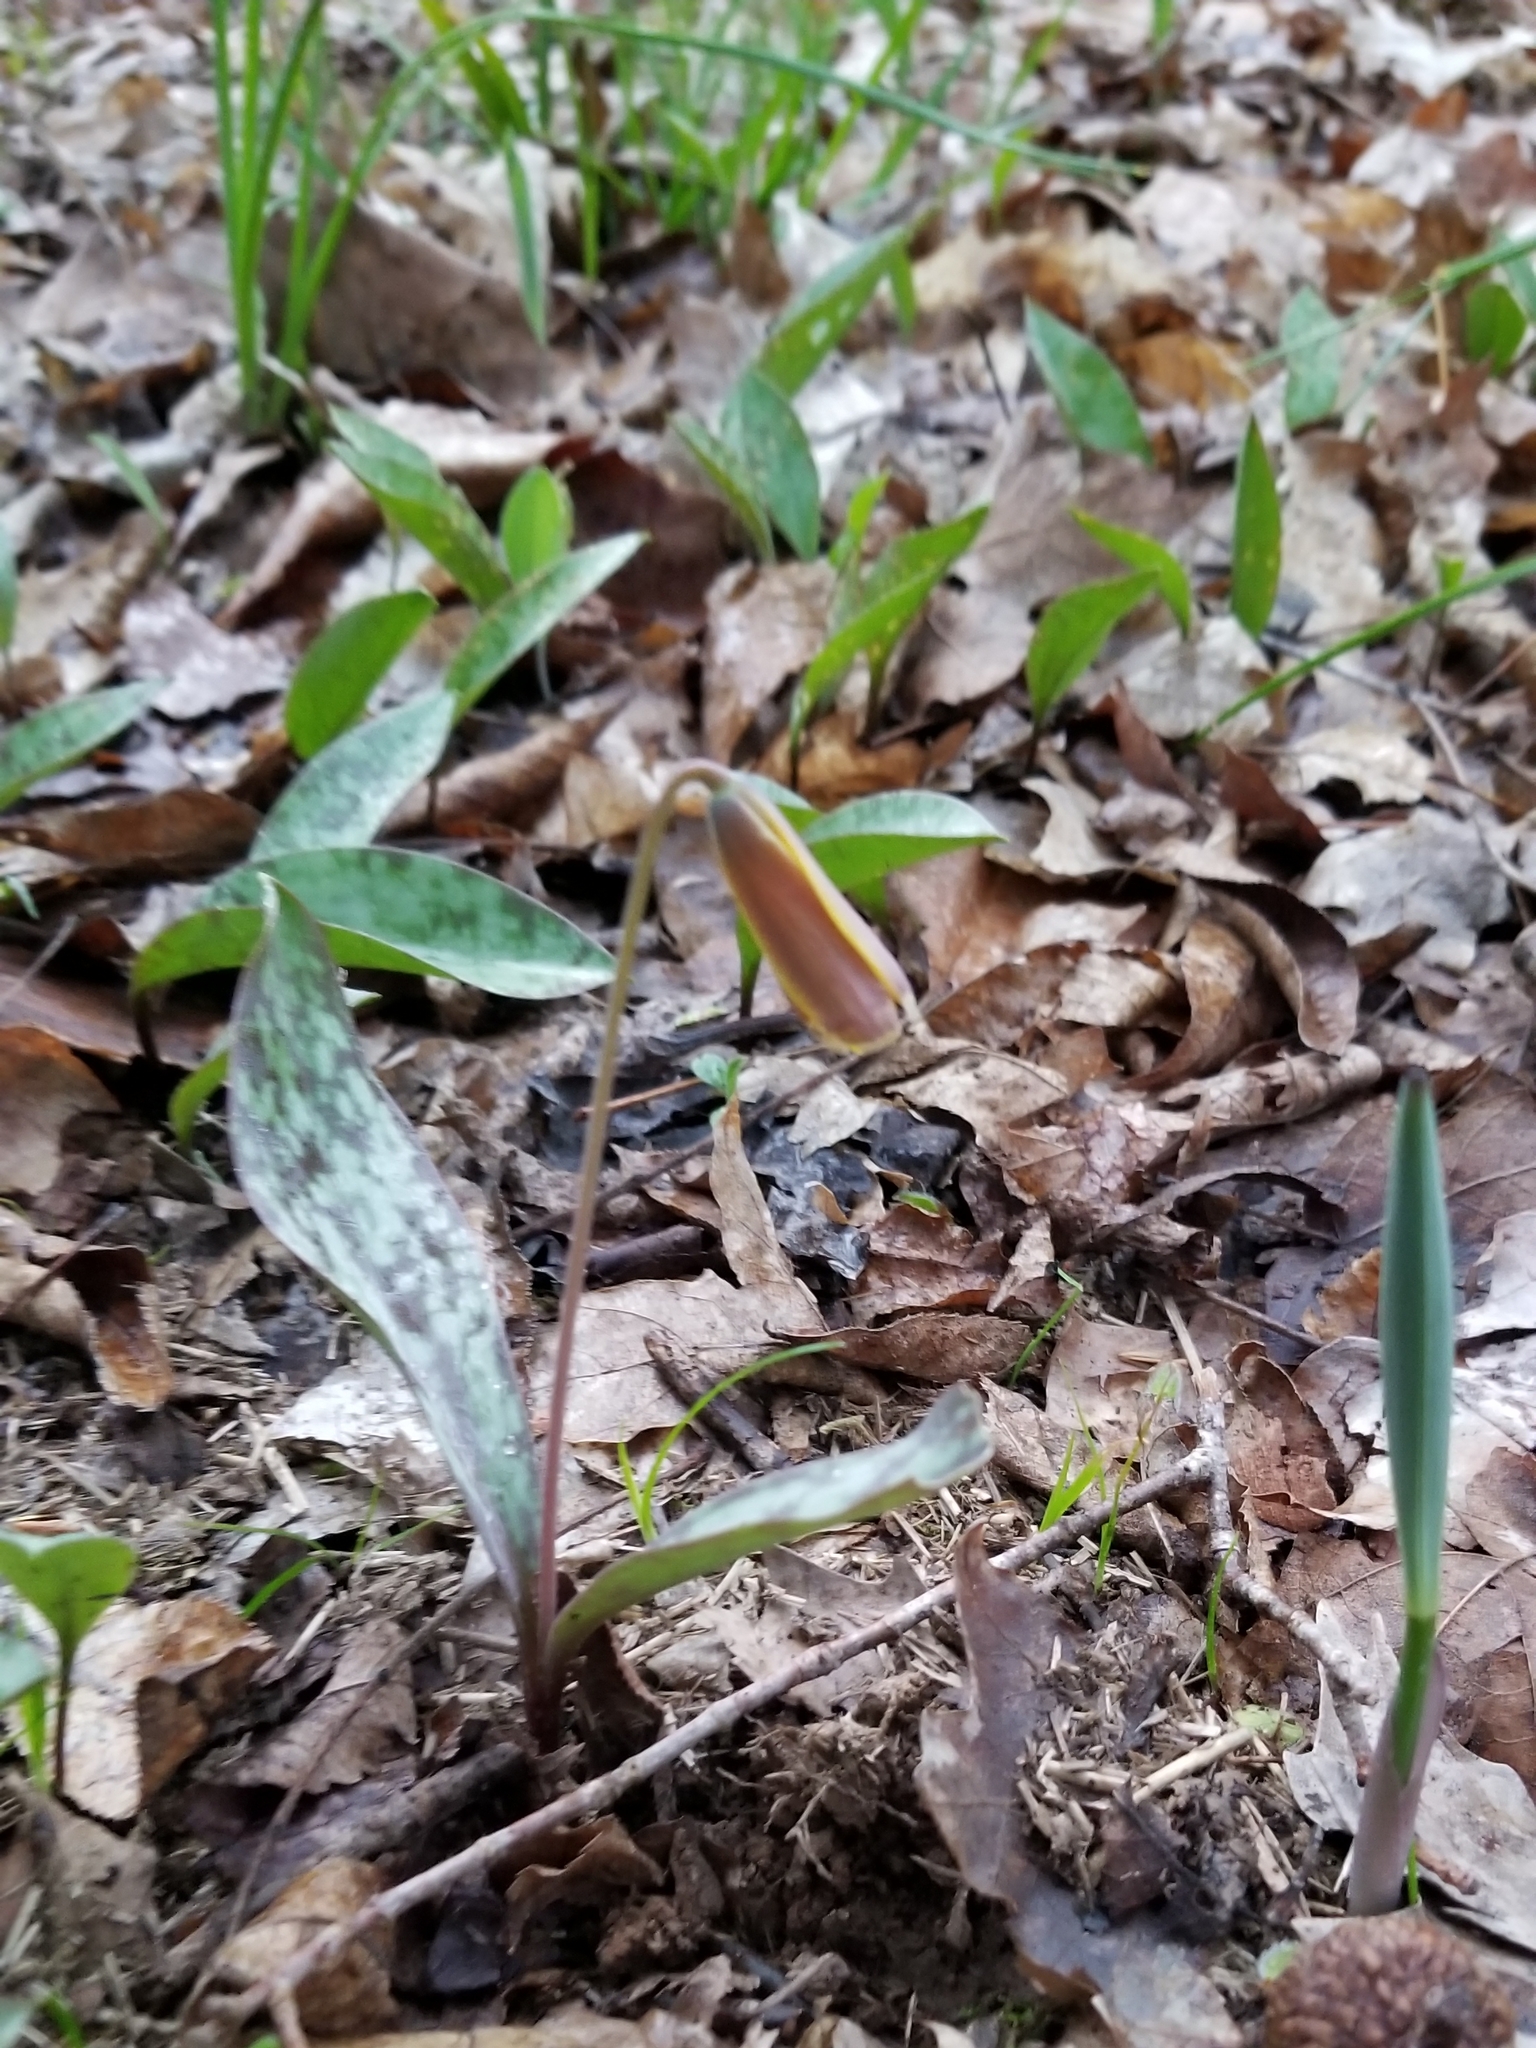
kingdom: Plantae
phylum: Tracheophyta
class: Liliopsida
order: Liliales
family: Liliaceae
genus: Erythronium
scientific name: Erythronium americanum
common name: Yellow adder's-tongue
